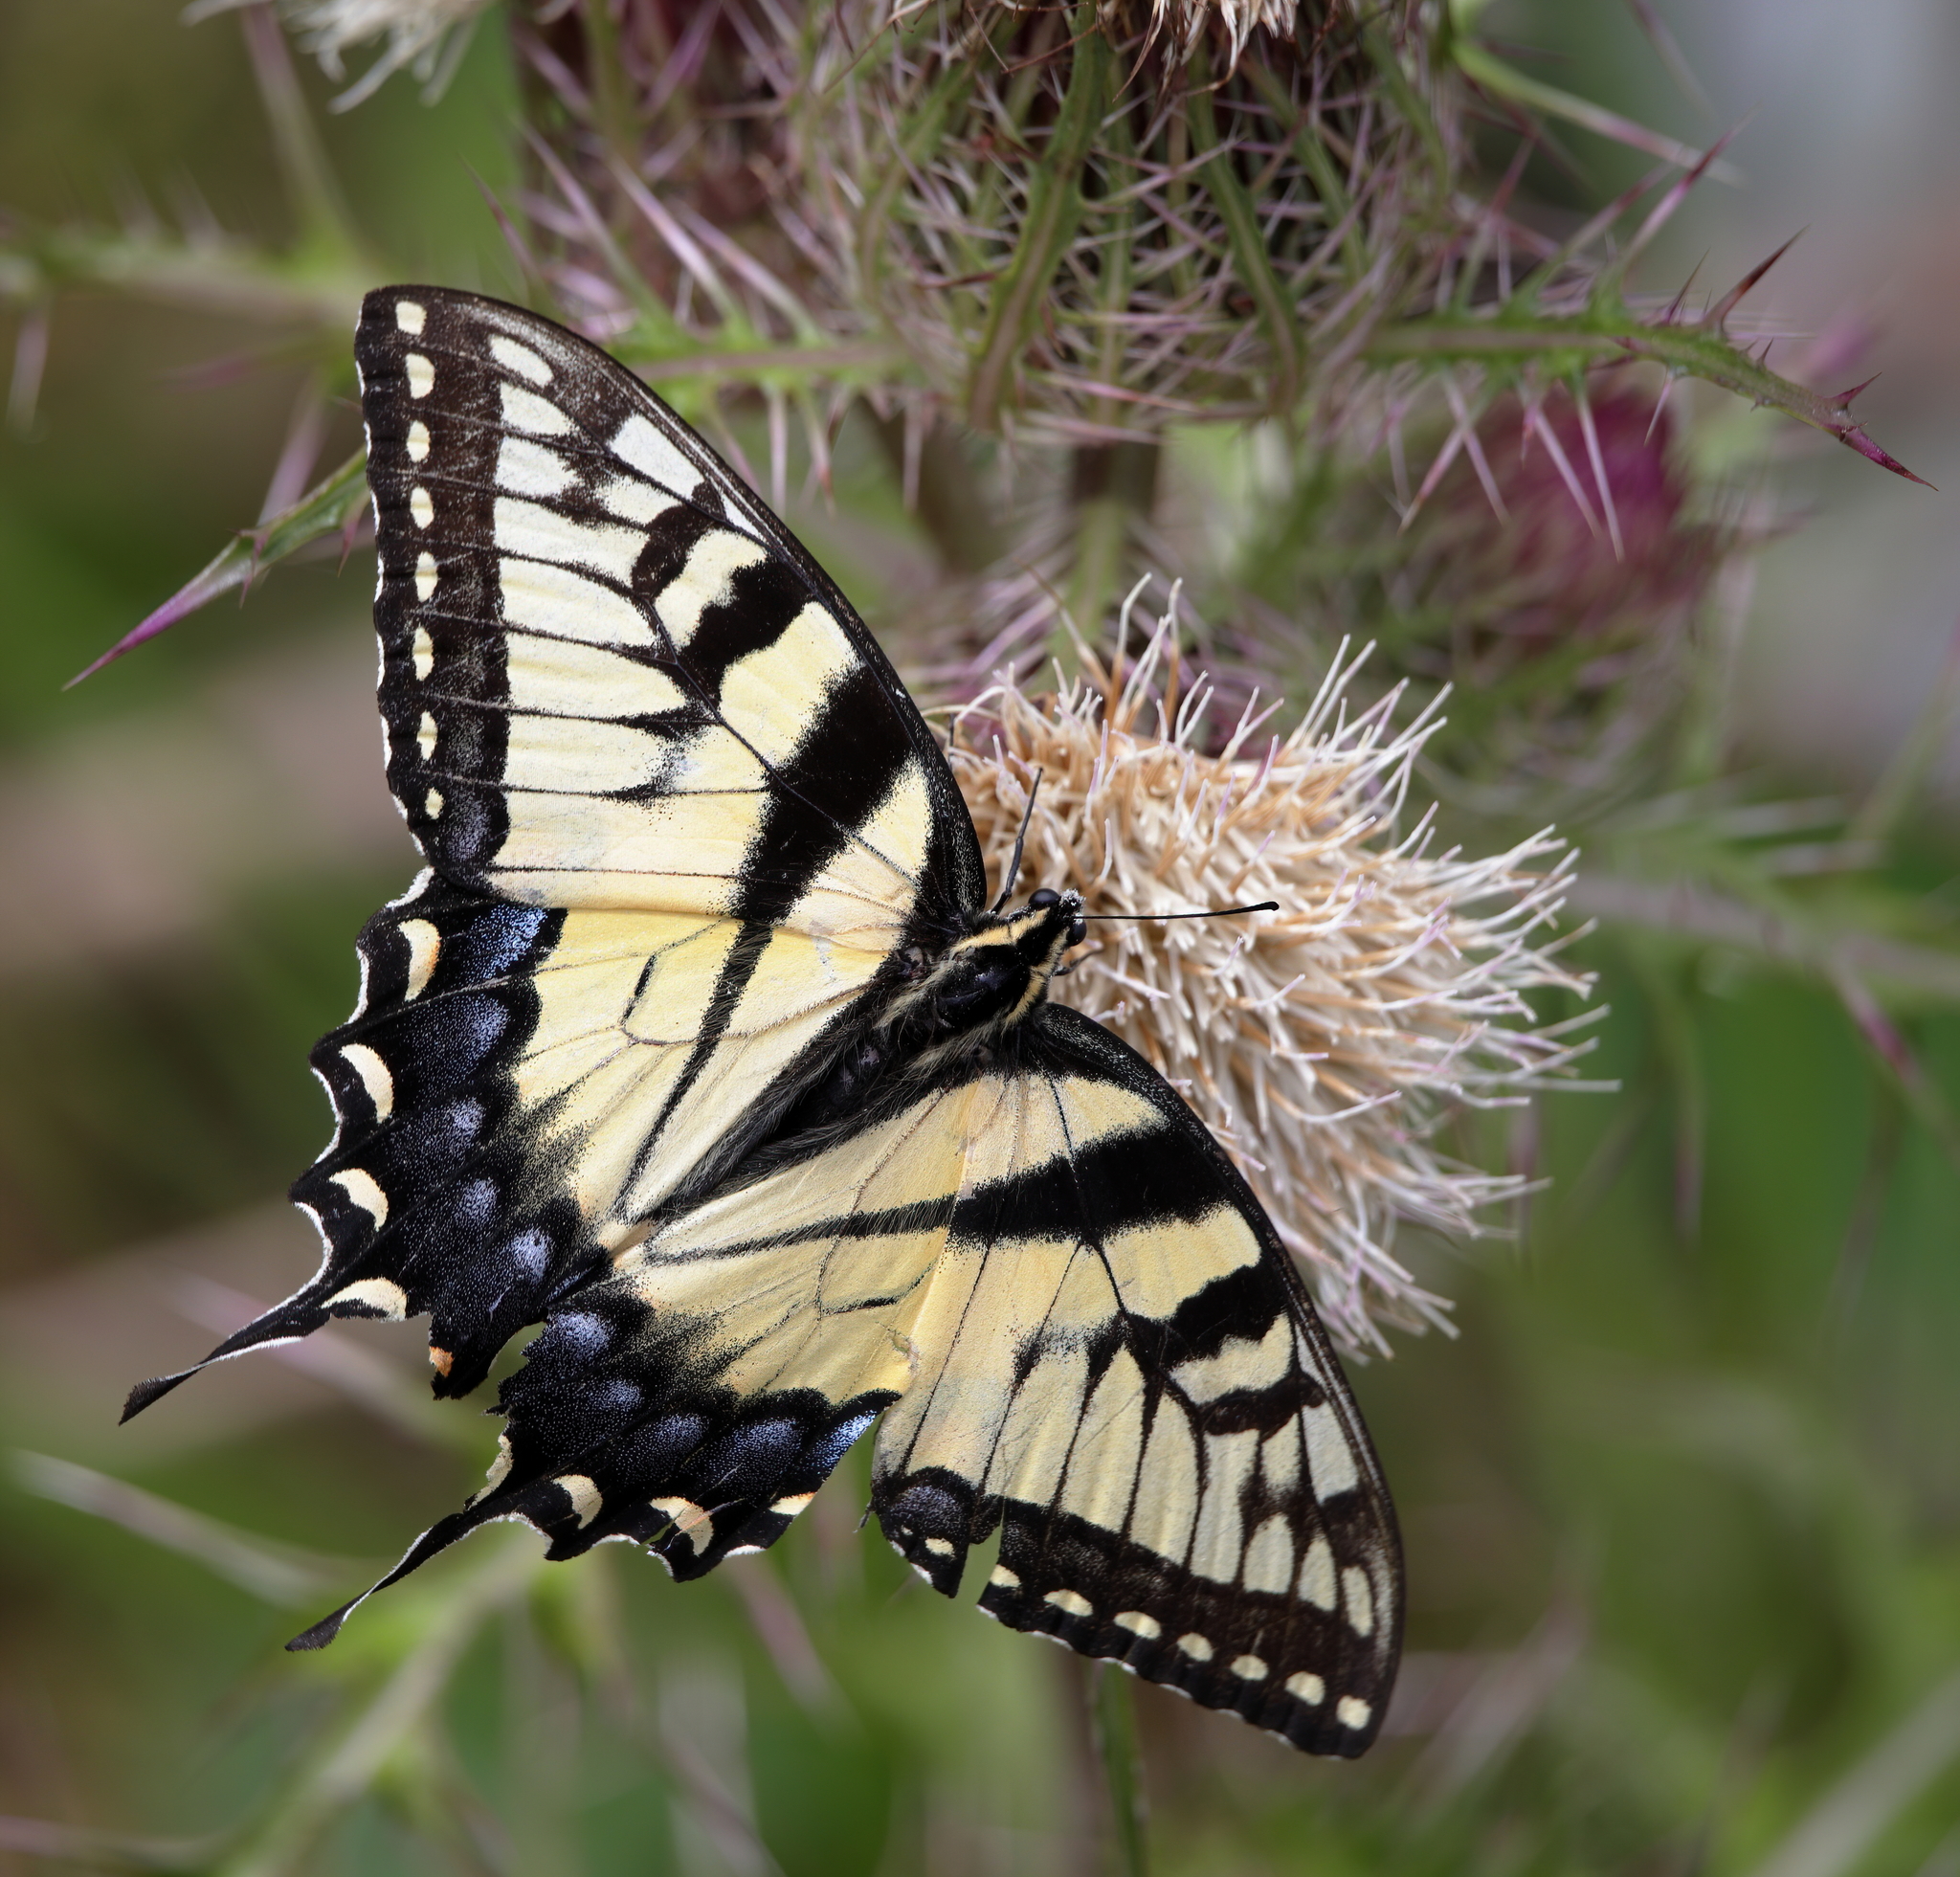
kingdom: Animalia
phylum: Arthropoda
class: Insecta
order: Lepidoptera
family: Papilionidae
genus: Papilio
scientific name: Papilio glaucus
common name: Tiger swallowtail
